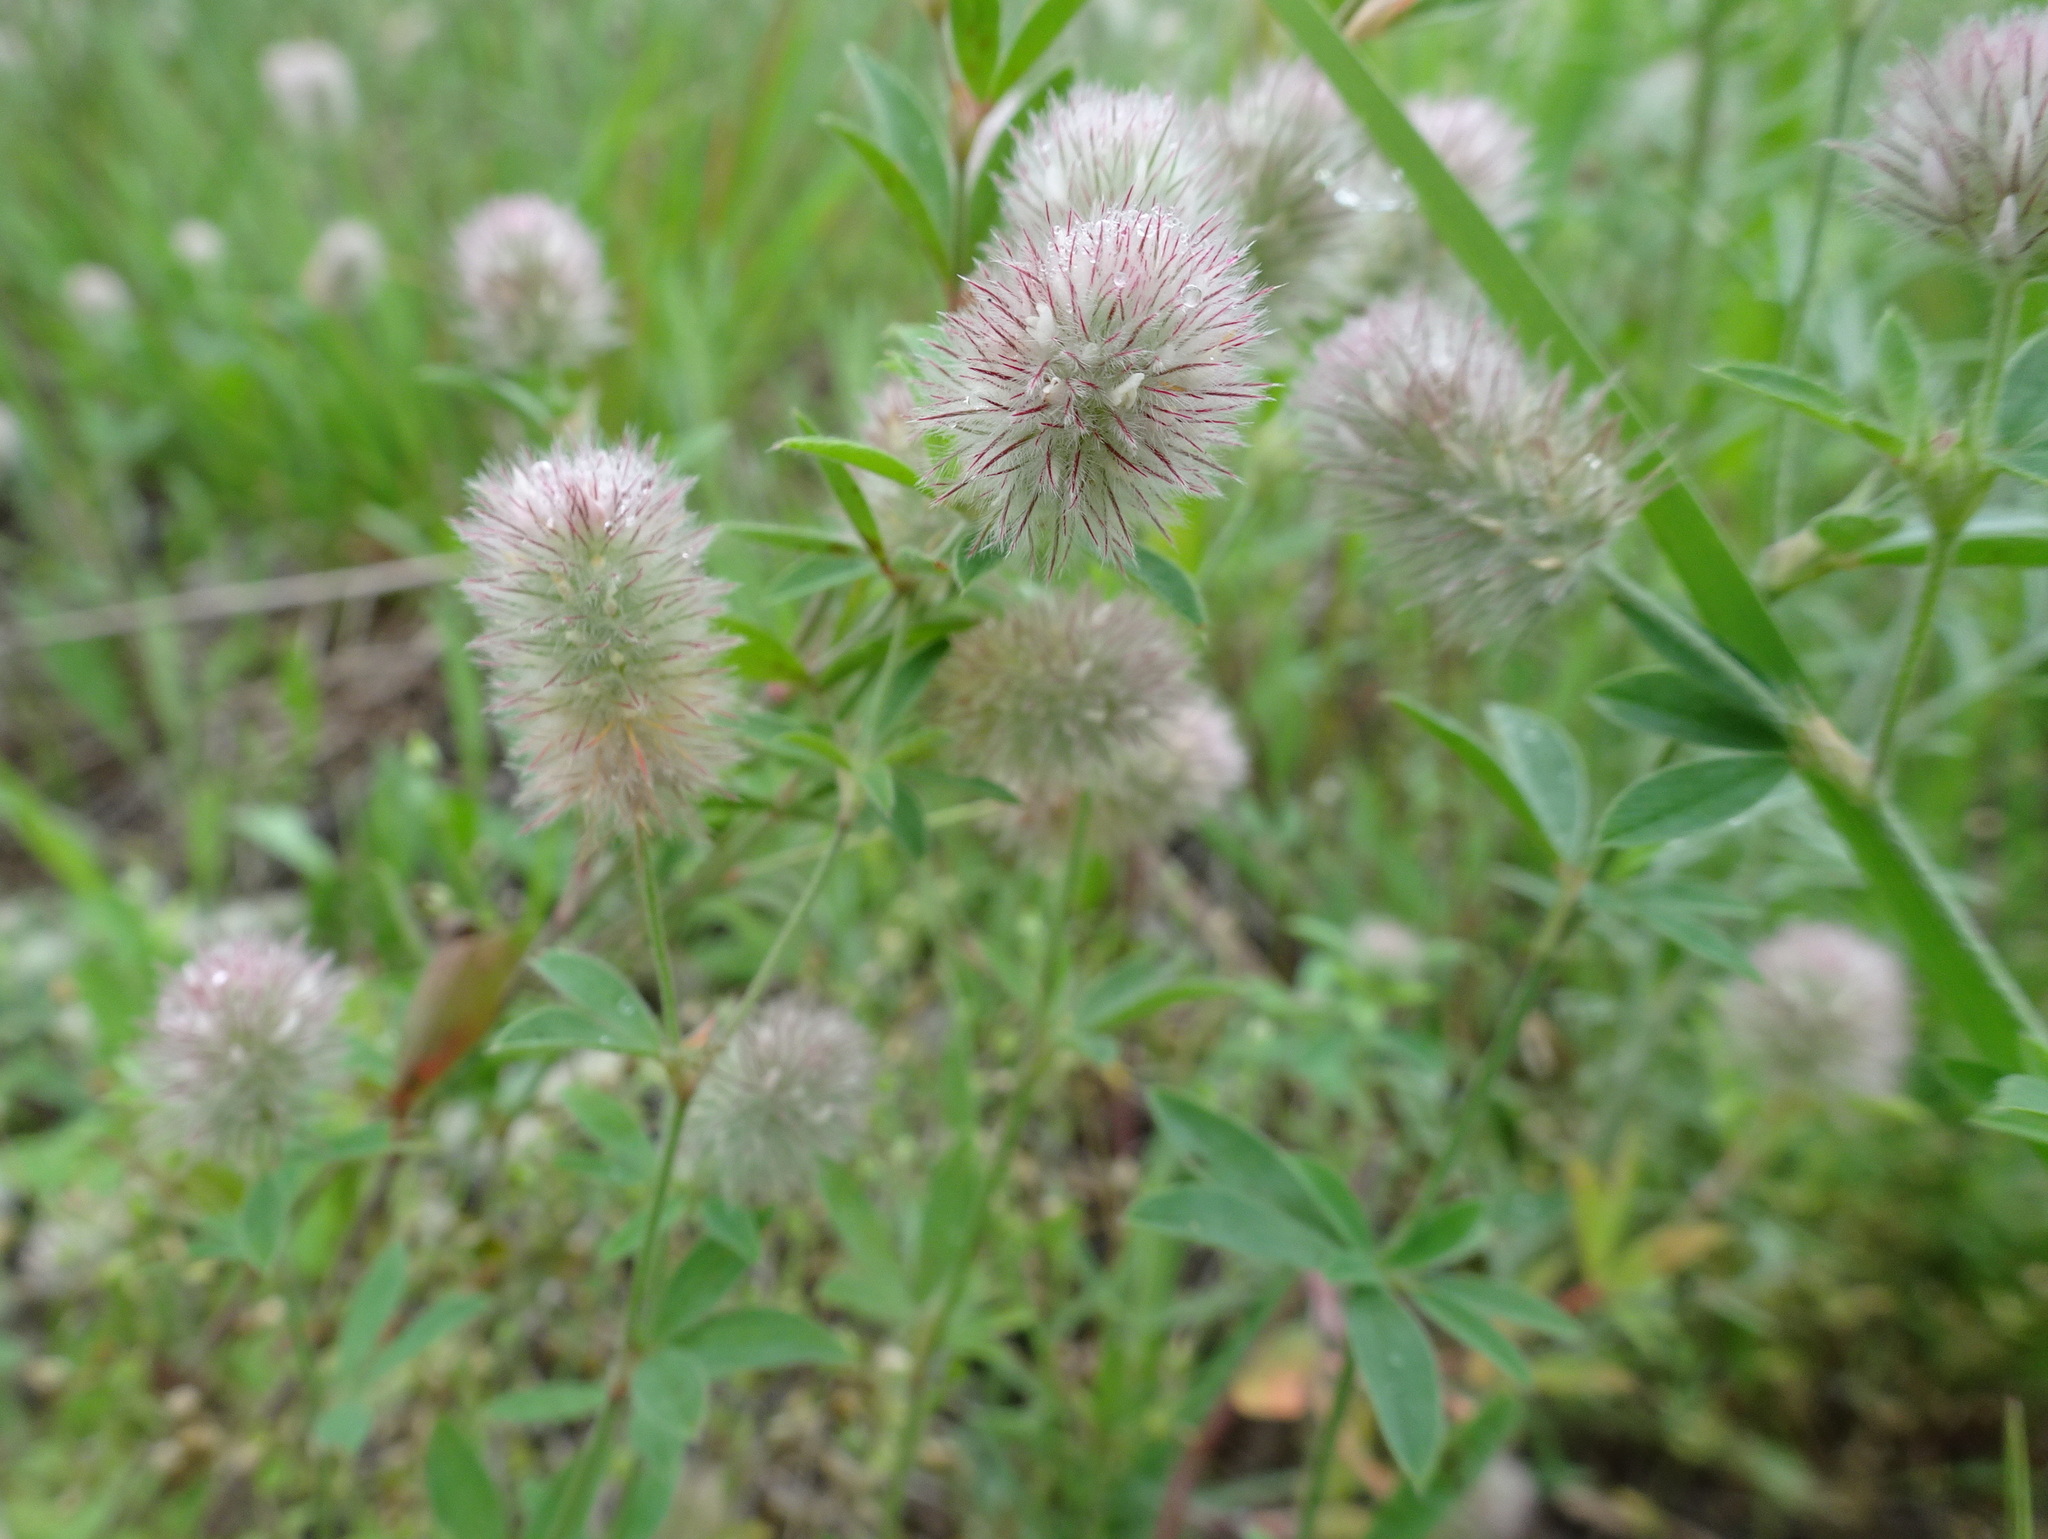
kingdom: Plantae
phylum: Tracheophyta
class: Magnoliopsida
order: Fabales
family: Fabaceae
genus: Trifolium
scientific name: Trifolium arvense
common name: Hare's-foot clover
